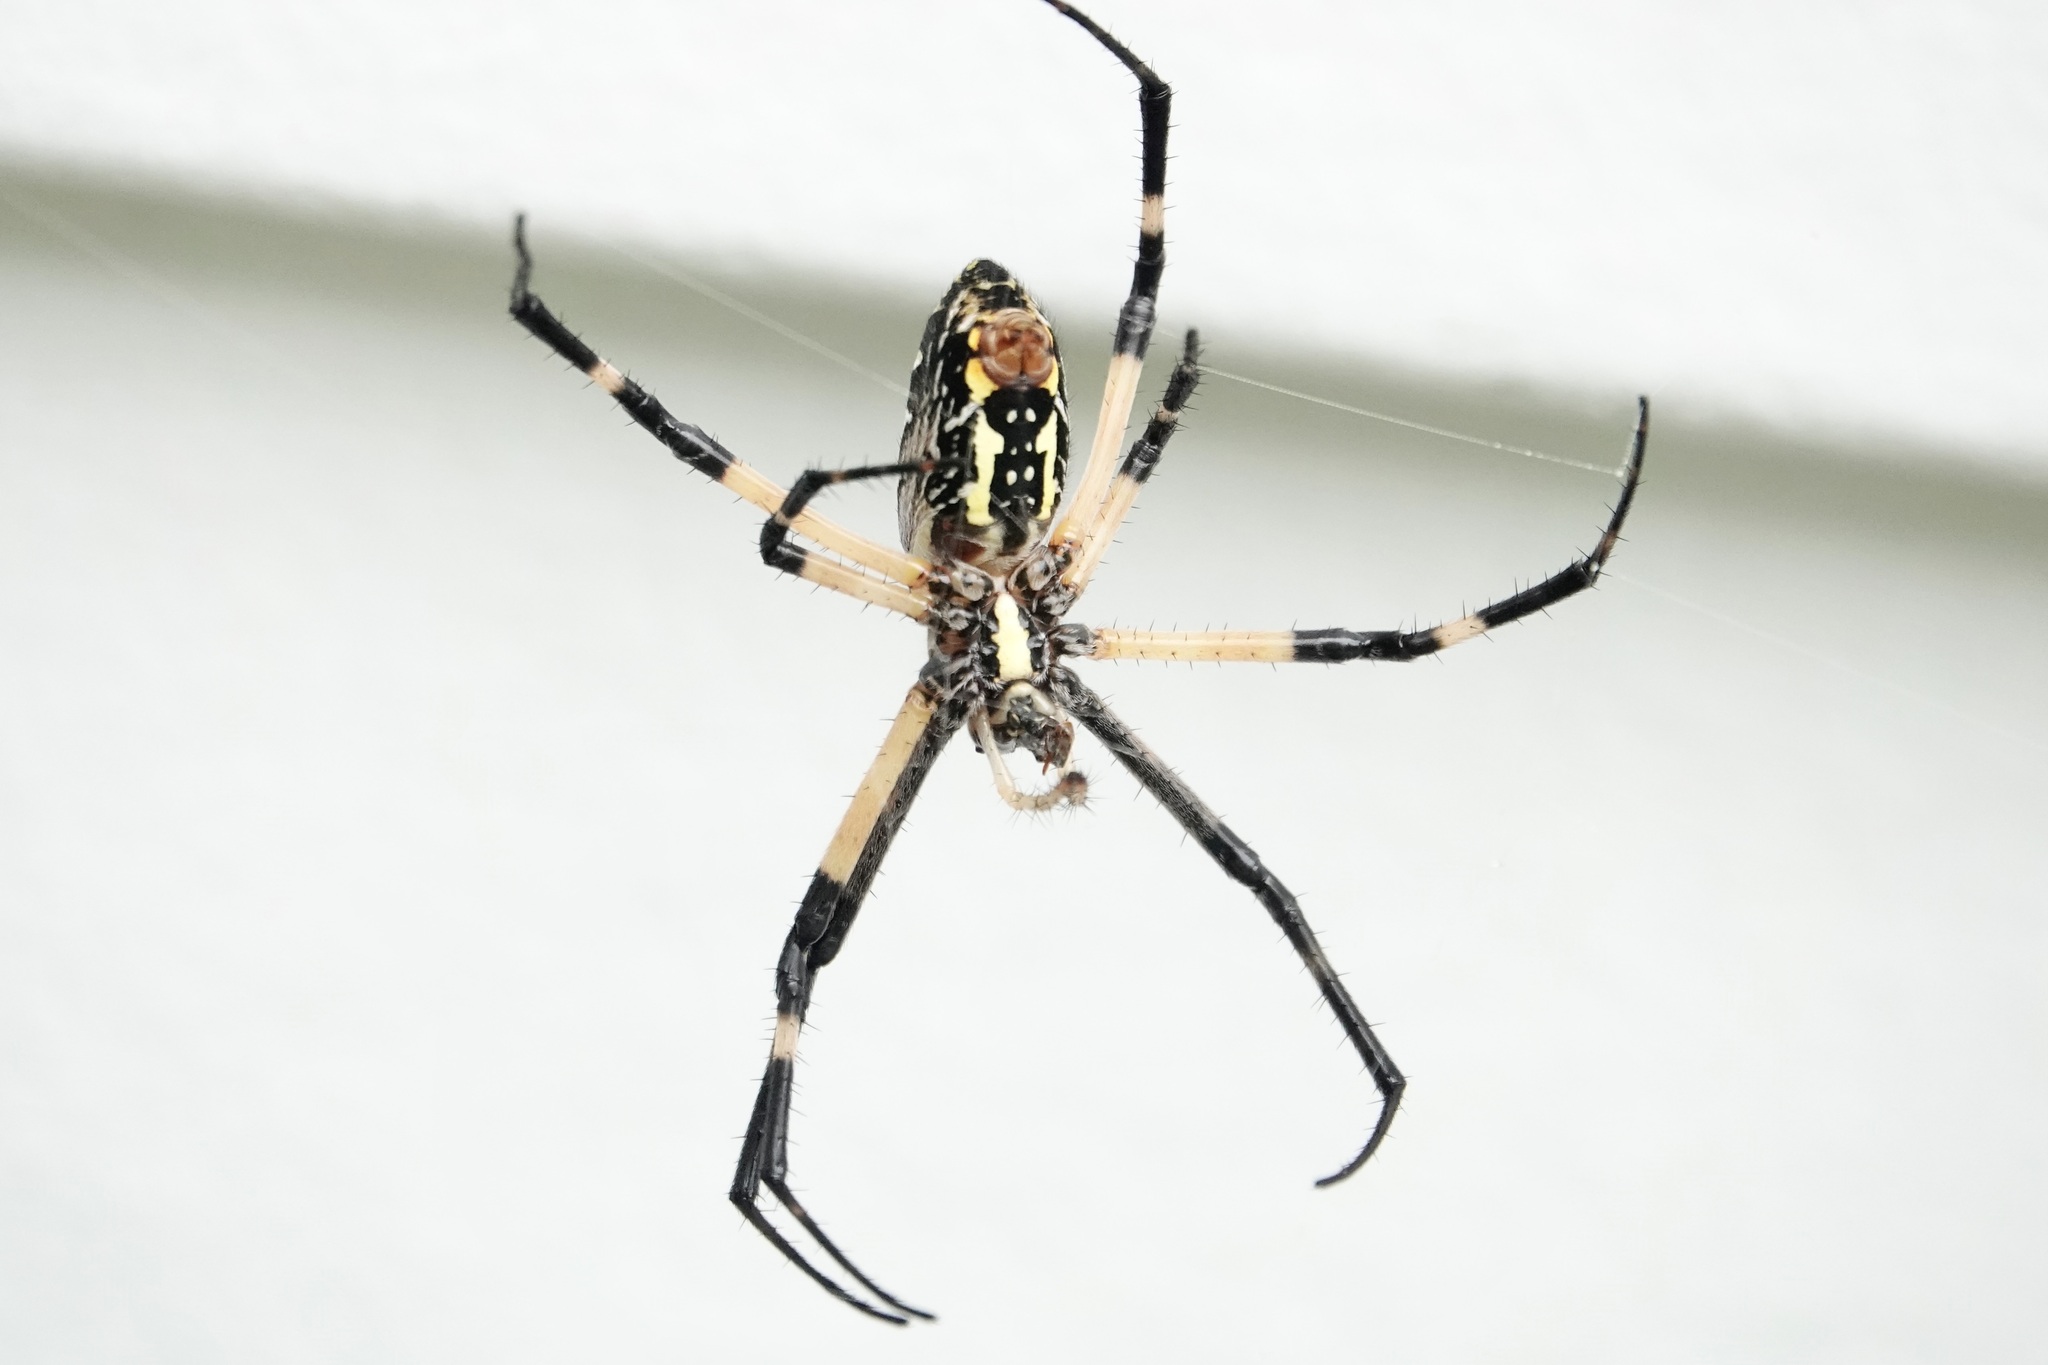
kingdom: Animalia
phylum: Arthropoda
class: Arachnida
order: Araneae
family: Araneidae
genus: Argiope
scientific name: Argiope aurantia
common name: Orb weavers
